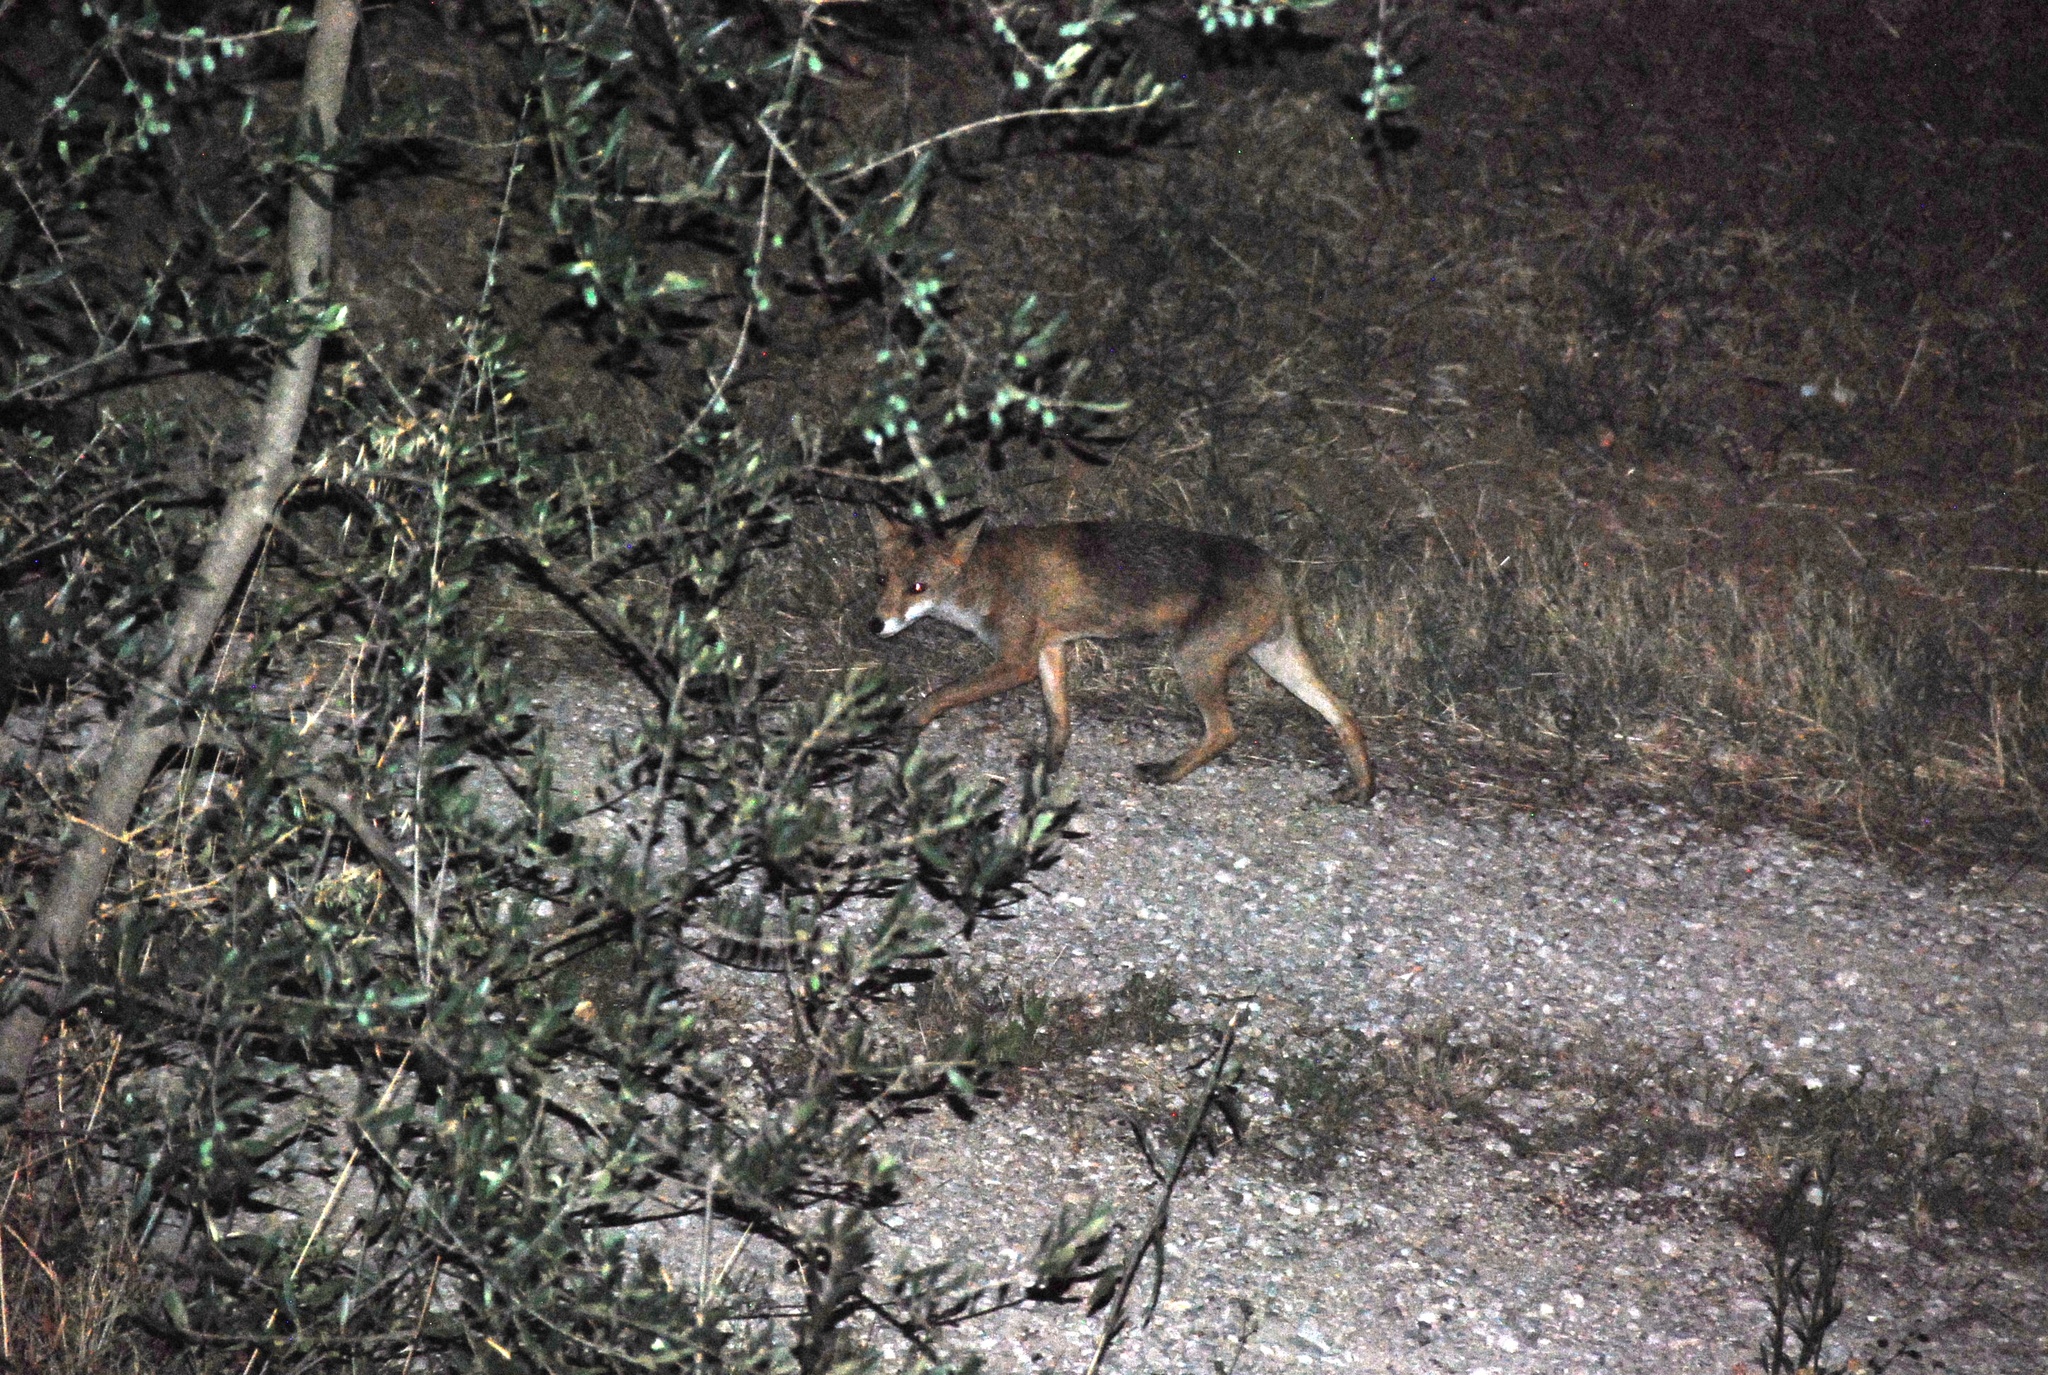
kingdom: Animalia
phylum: Chordata
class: Mammalia
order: Carnivora
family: Canidae
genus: Vulpes
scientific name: Vulpes vulpes
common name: Red fox
